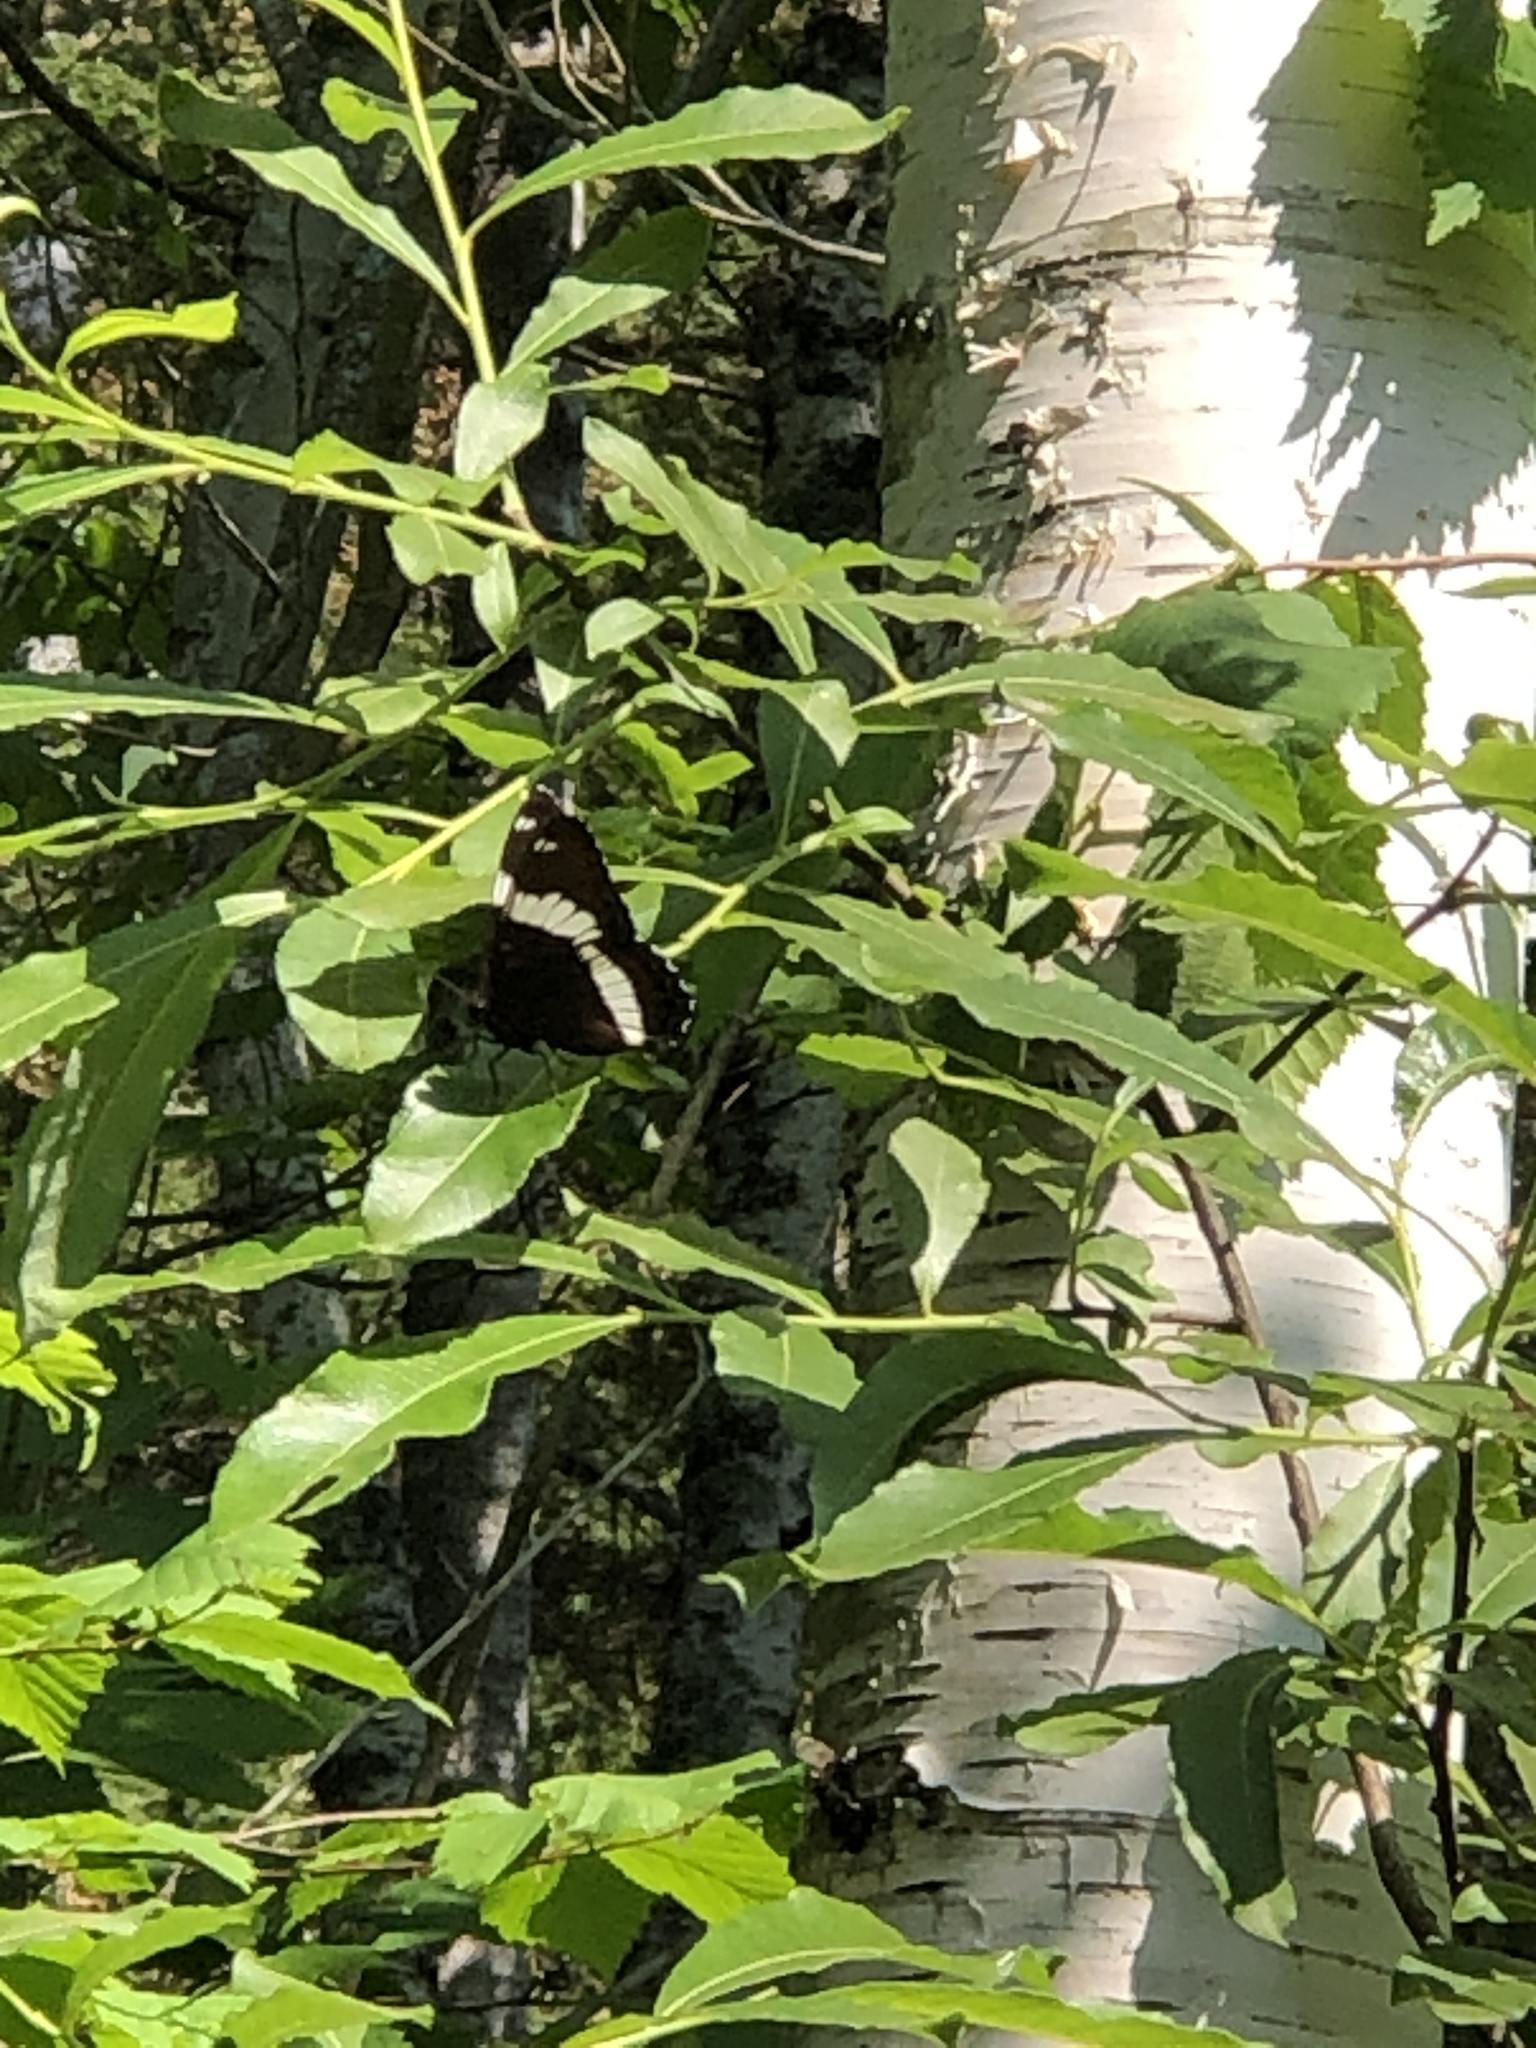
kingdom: Animalia
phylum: Arthropoda
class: Insecta
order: Lepidoptera
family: Nymphalidae
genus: Limenitis
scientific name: Limenitis arthemis
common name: Red-spotted admiral
